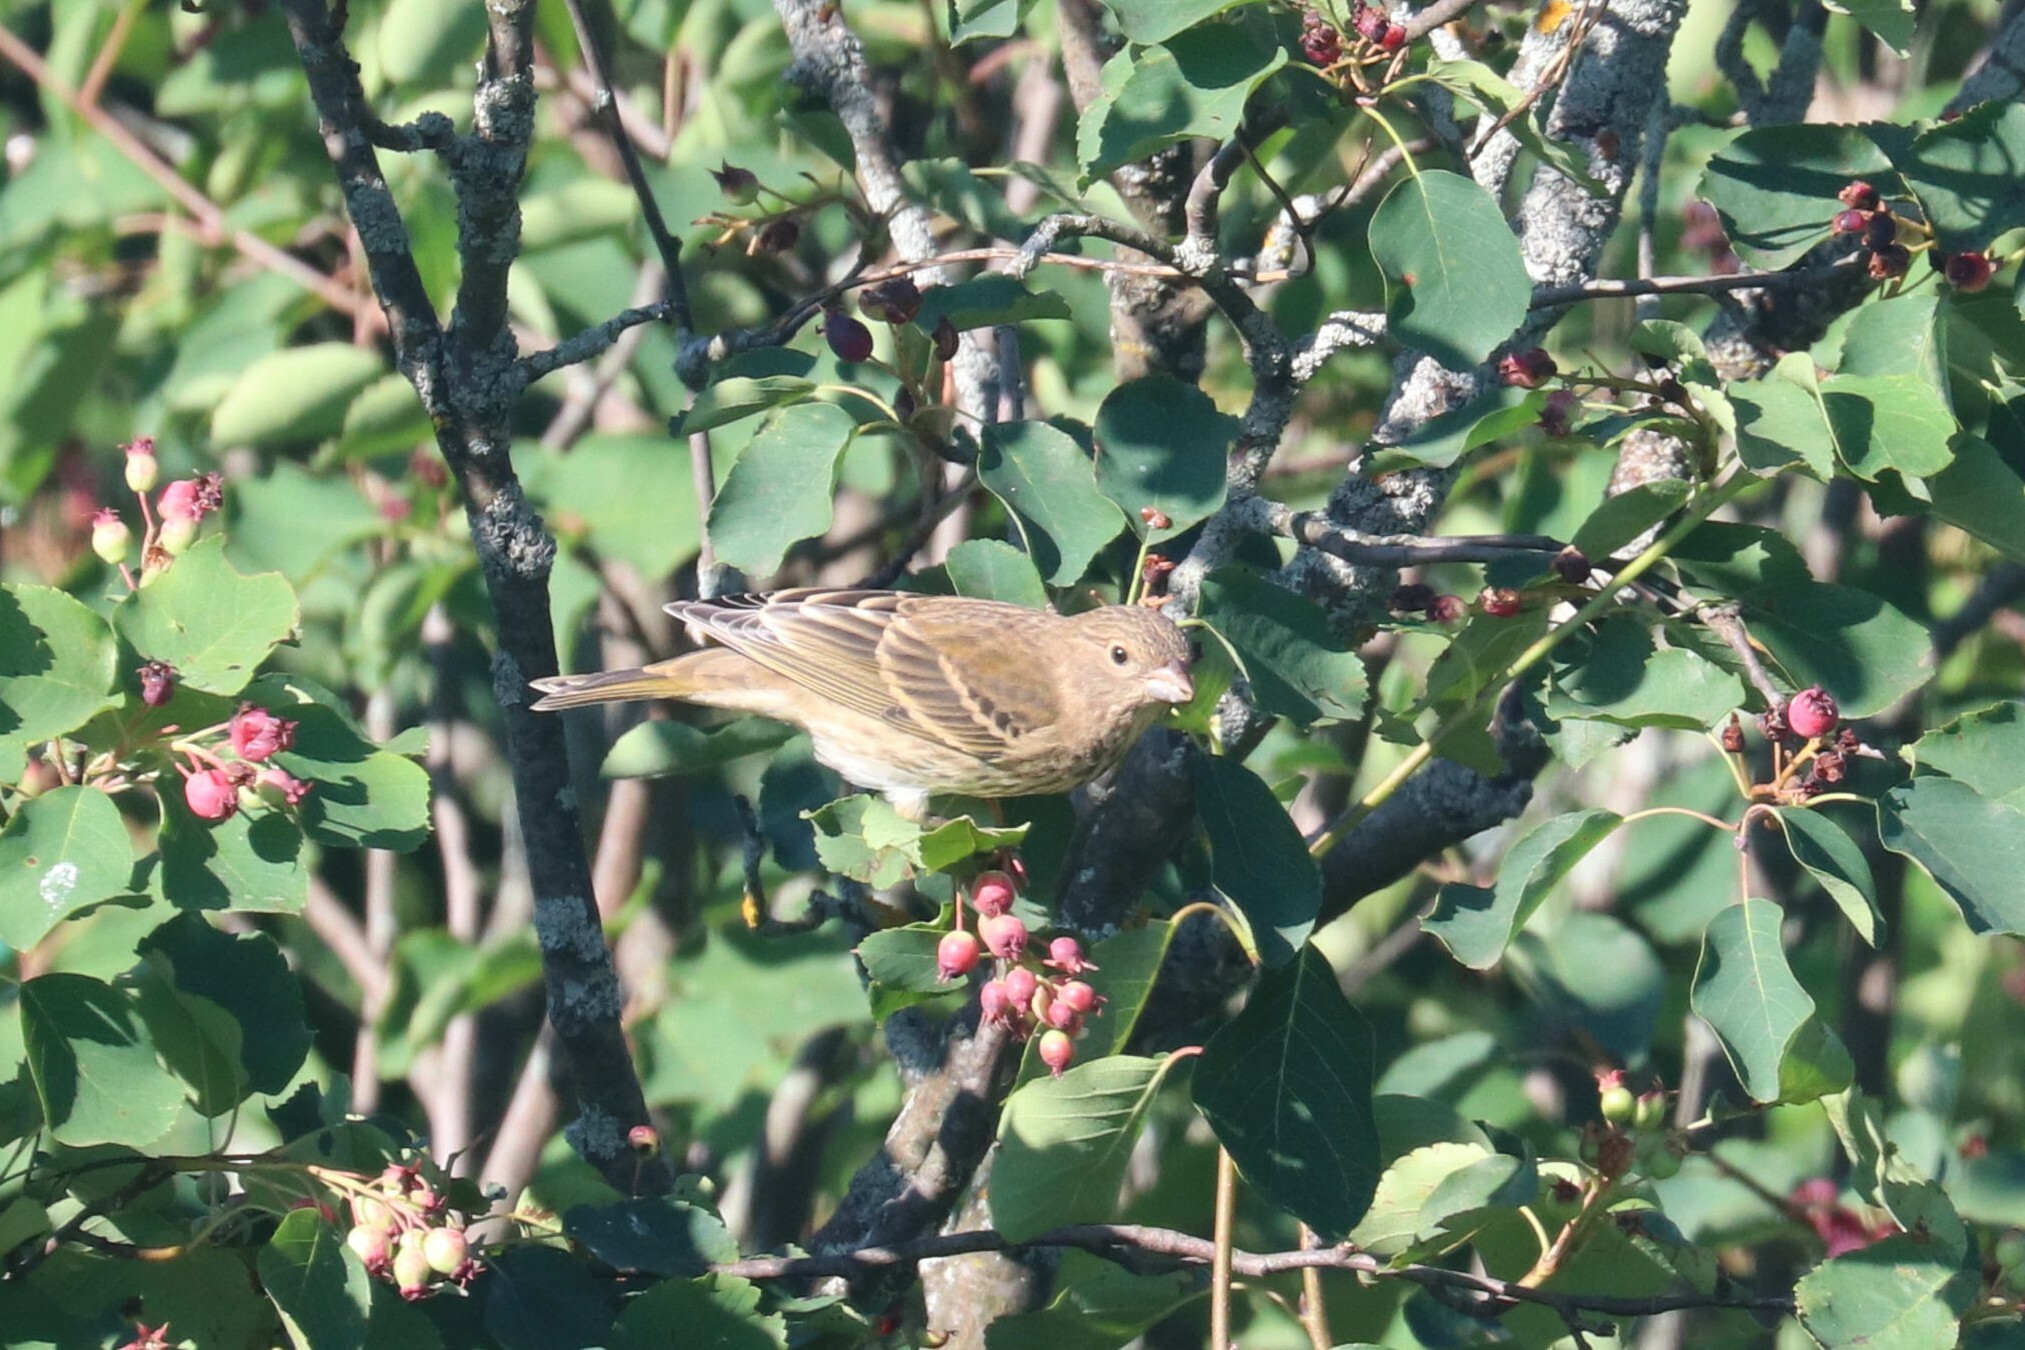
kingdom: Animalia
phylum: Chordata
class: Aves
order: Passeriformes
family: Fringillidae
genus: Carpodacus
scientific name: Carpodacus erythrinus
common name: Common rosefinch
